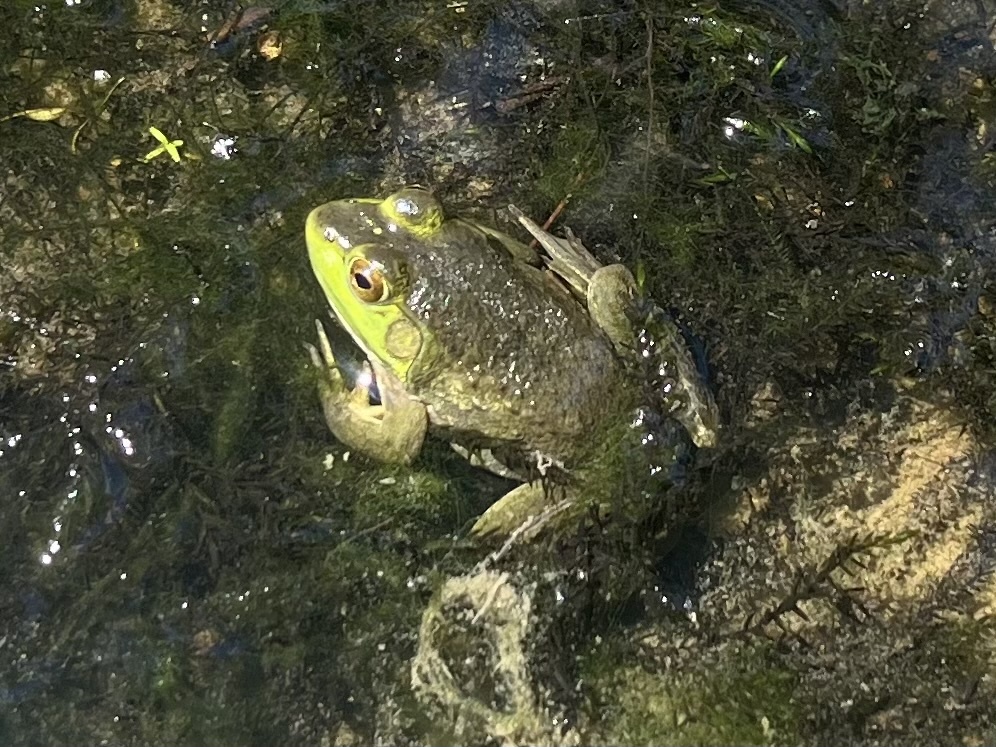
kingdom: Animalia
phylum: Chordata
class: Amphibia
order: Anura
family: Ranidae
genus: Lithobates
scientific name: Lithobates catesbeianus
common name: American bullfrog
